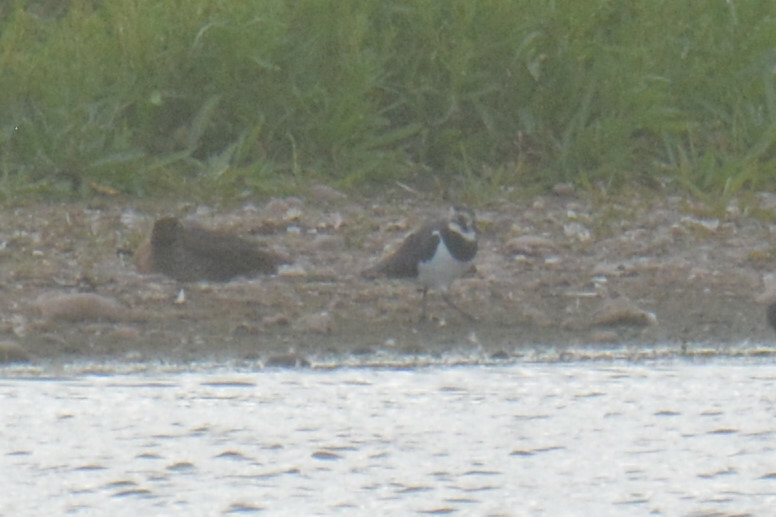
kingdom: Animalia
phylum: Chordata
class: Aves
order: Charadriiformes
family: Charadriidae
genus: Vanellus
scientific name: Vanellus vanellus
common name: Northern lapwing
